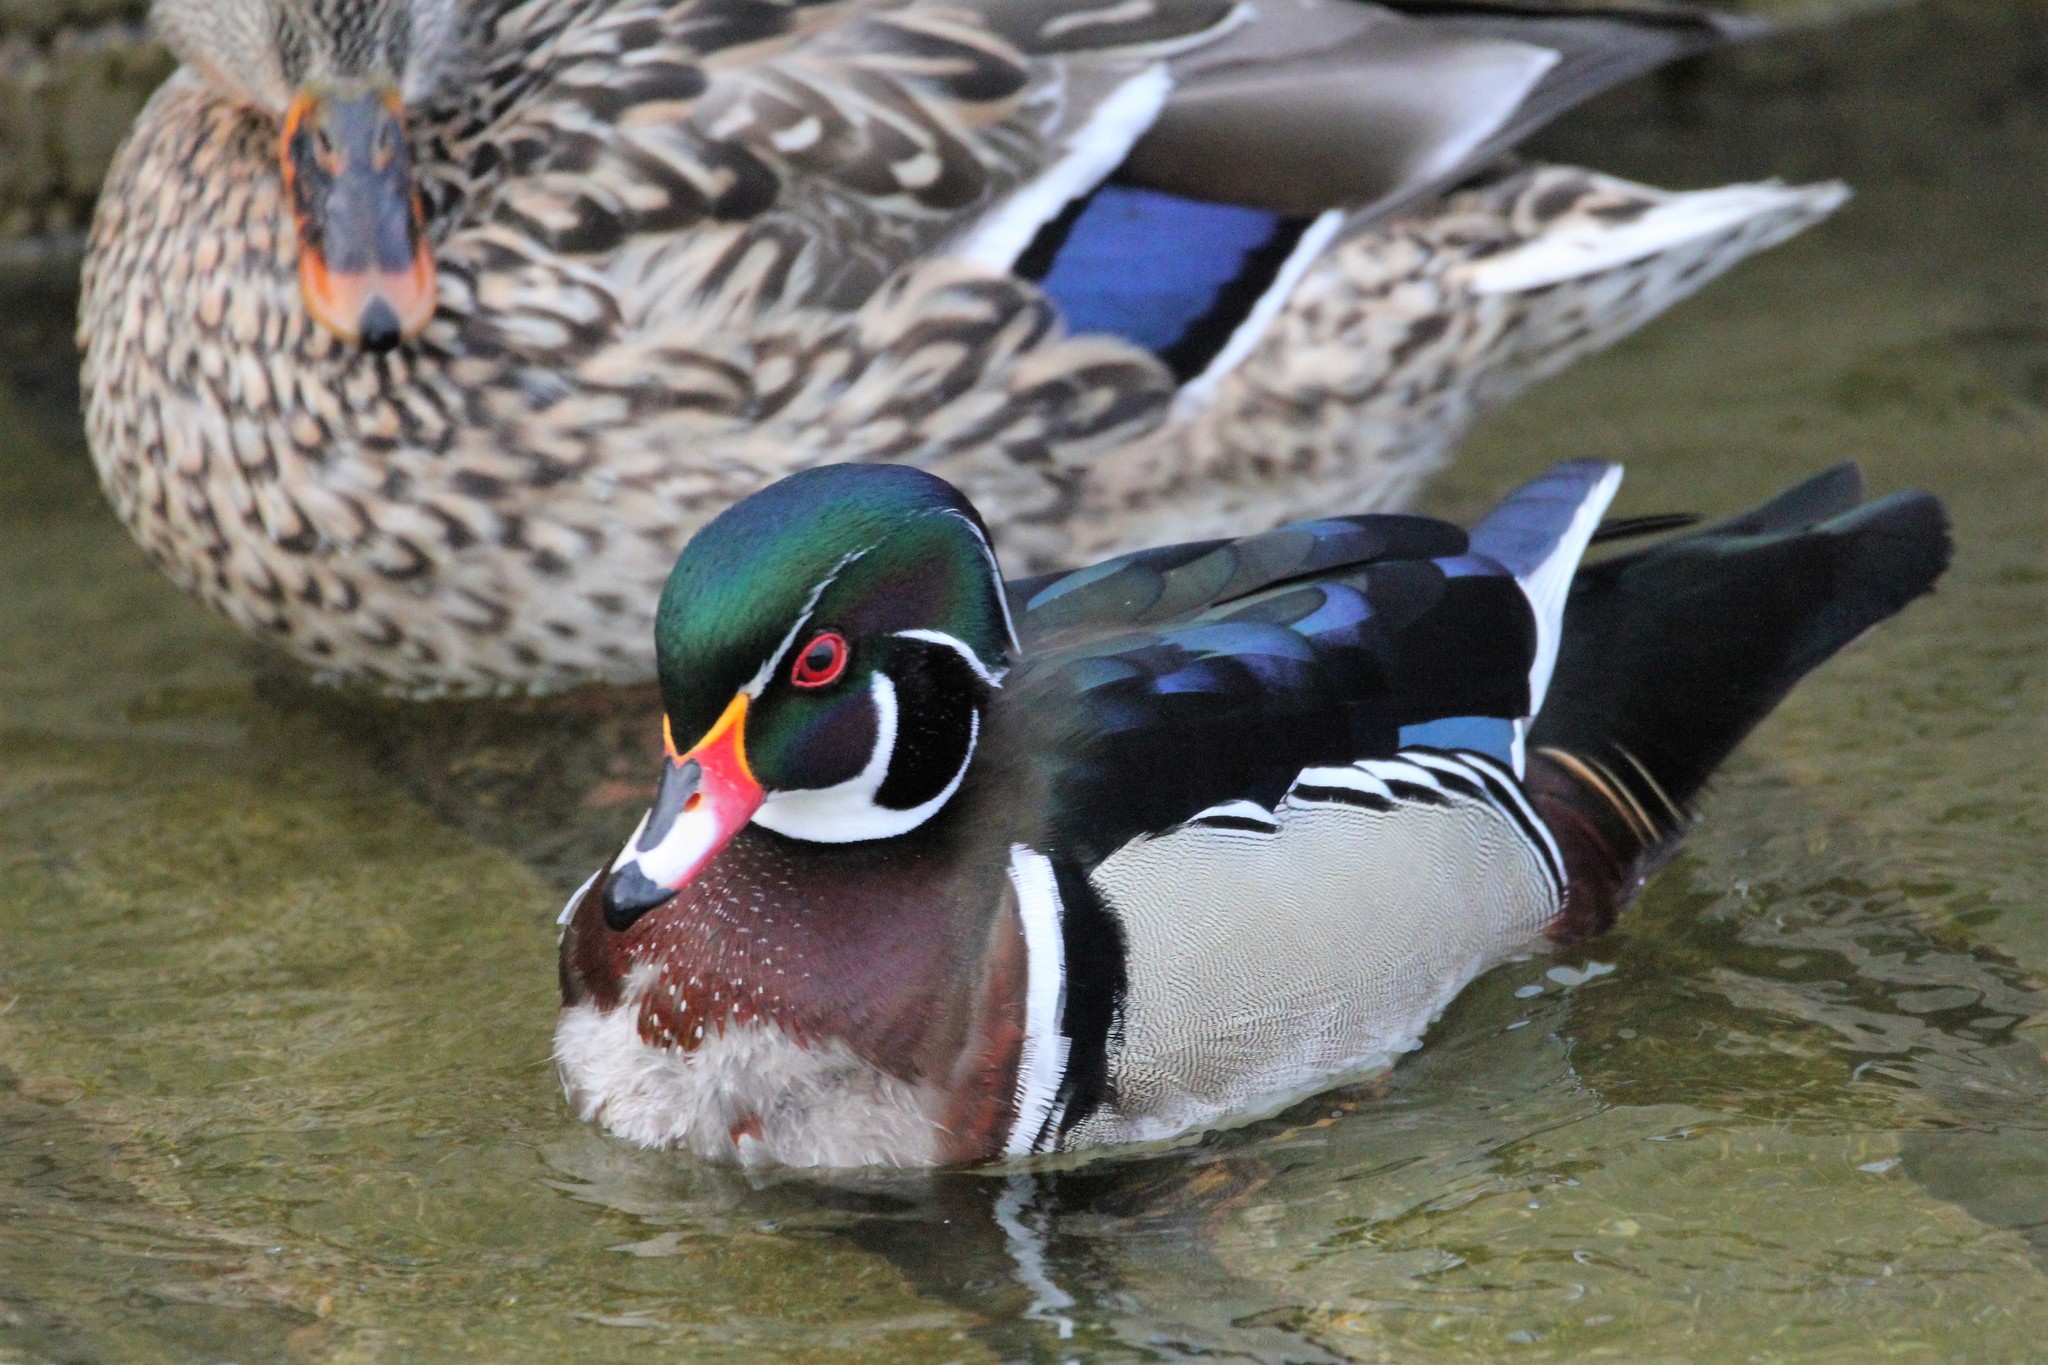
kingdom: Animalia
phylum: Chordata
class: Aves
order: Anseriformes
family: Anatidae
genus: Aix
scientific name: Aix sponsa
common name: Wood duck
